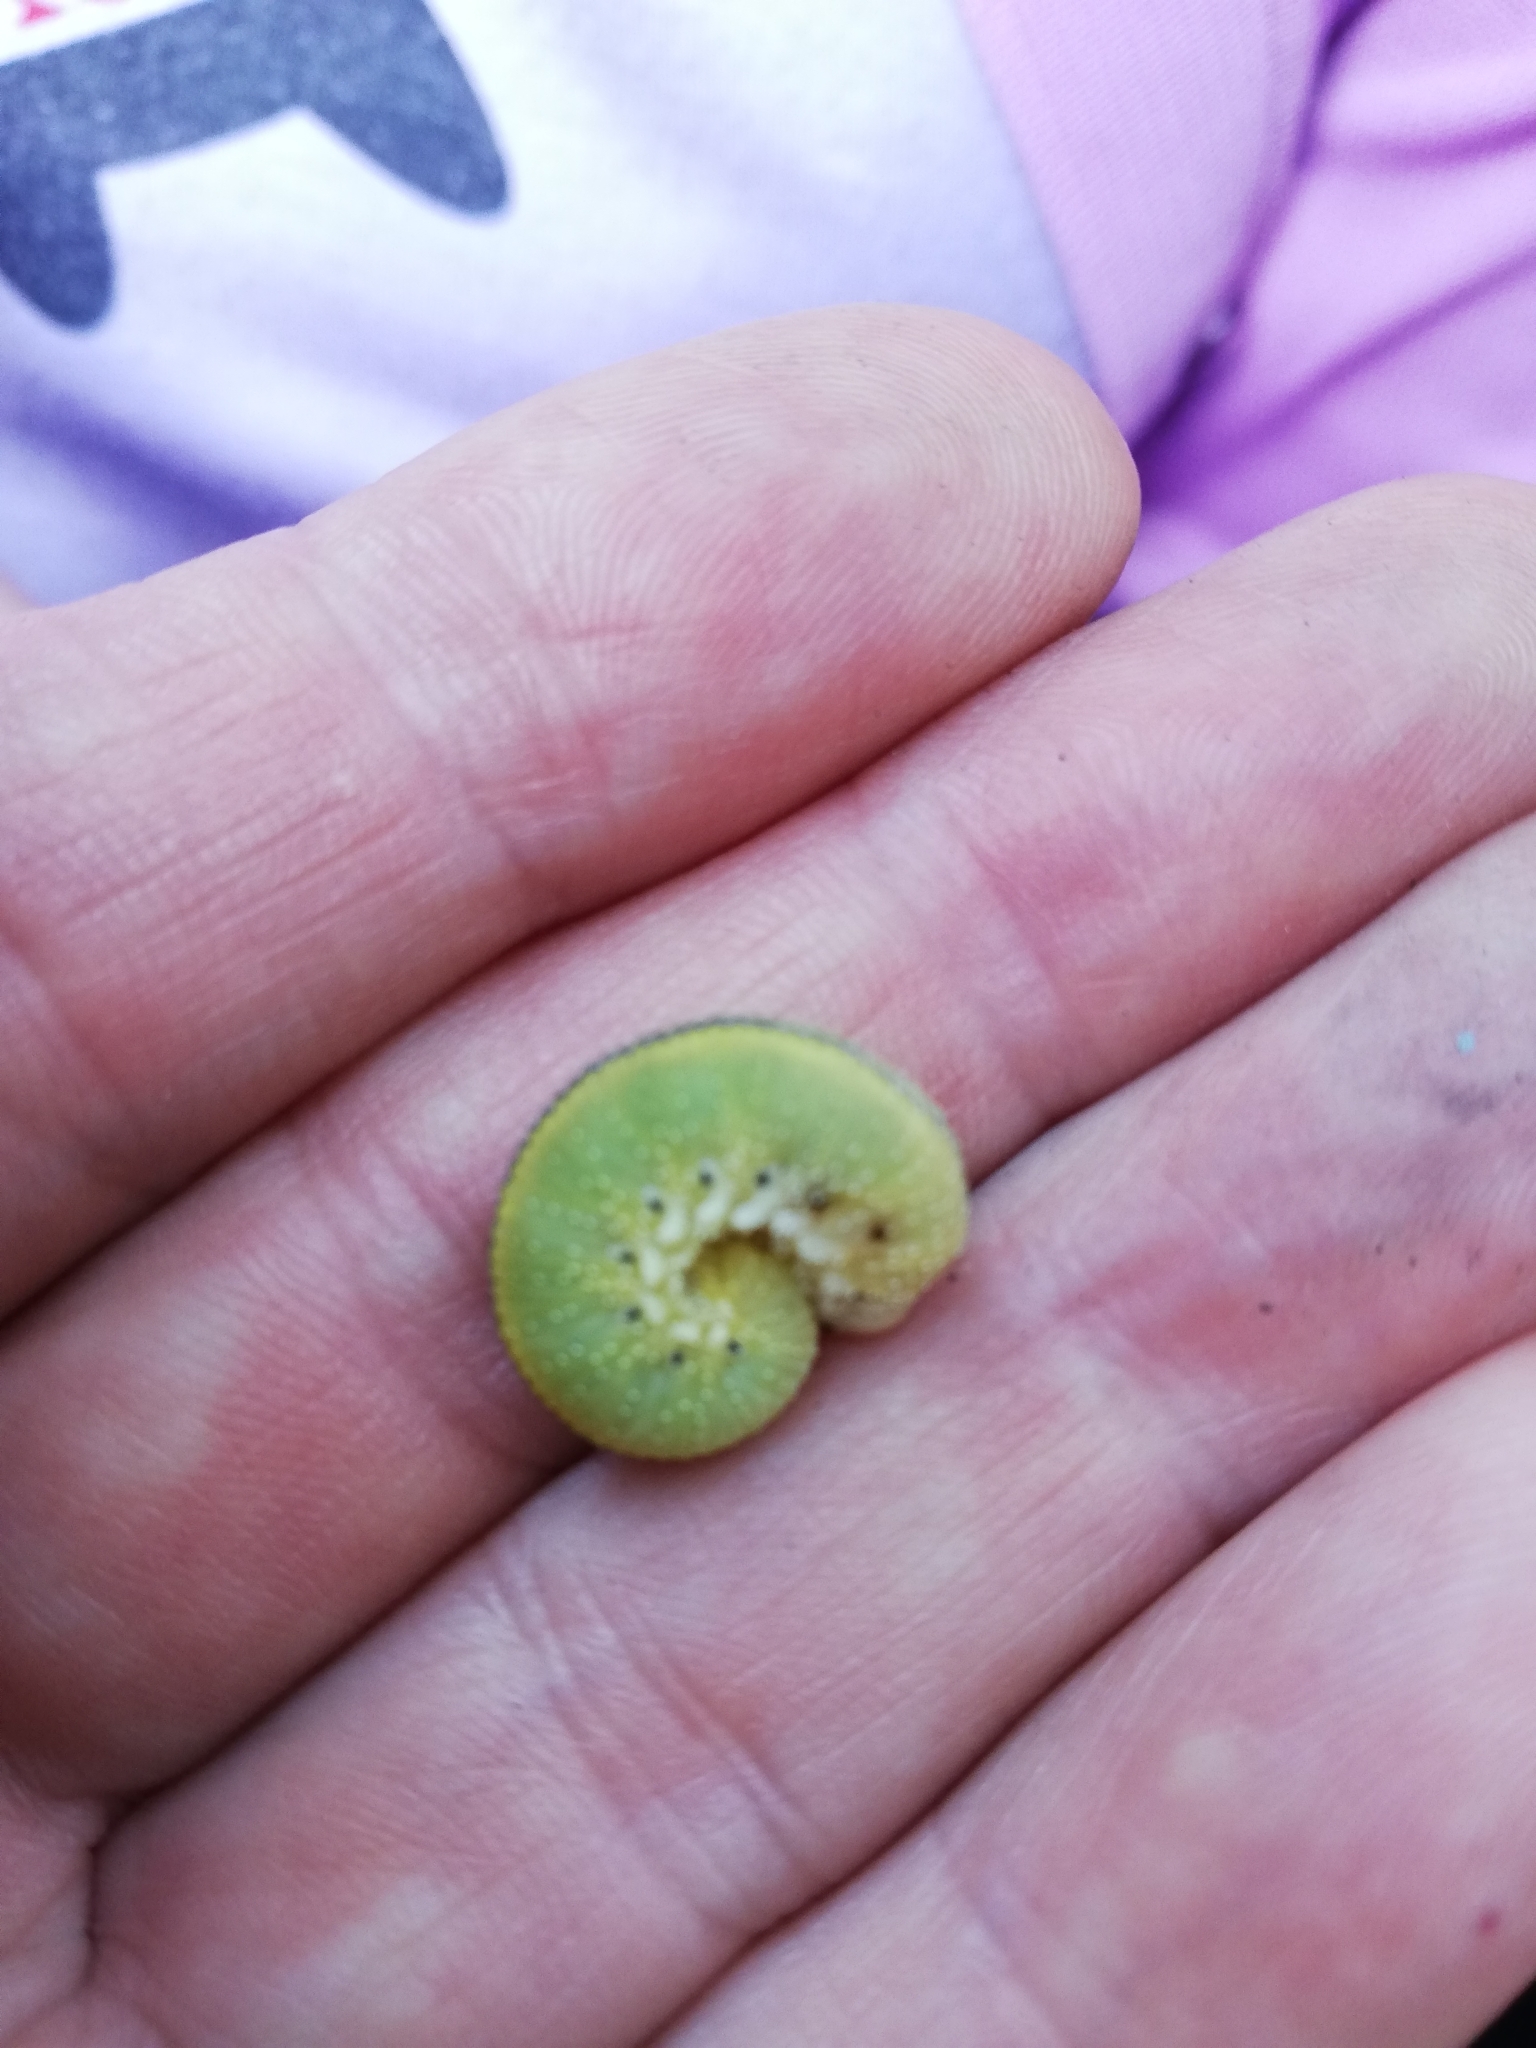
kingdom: Animalia
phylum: Arthropoda
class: Insecta
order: Hymenoptera
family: Cimbicidae
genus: Cimbex
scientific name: Cimbex femoratus
